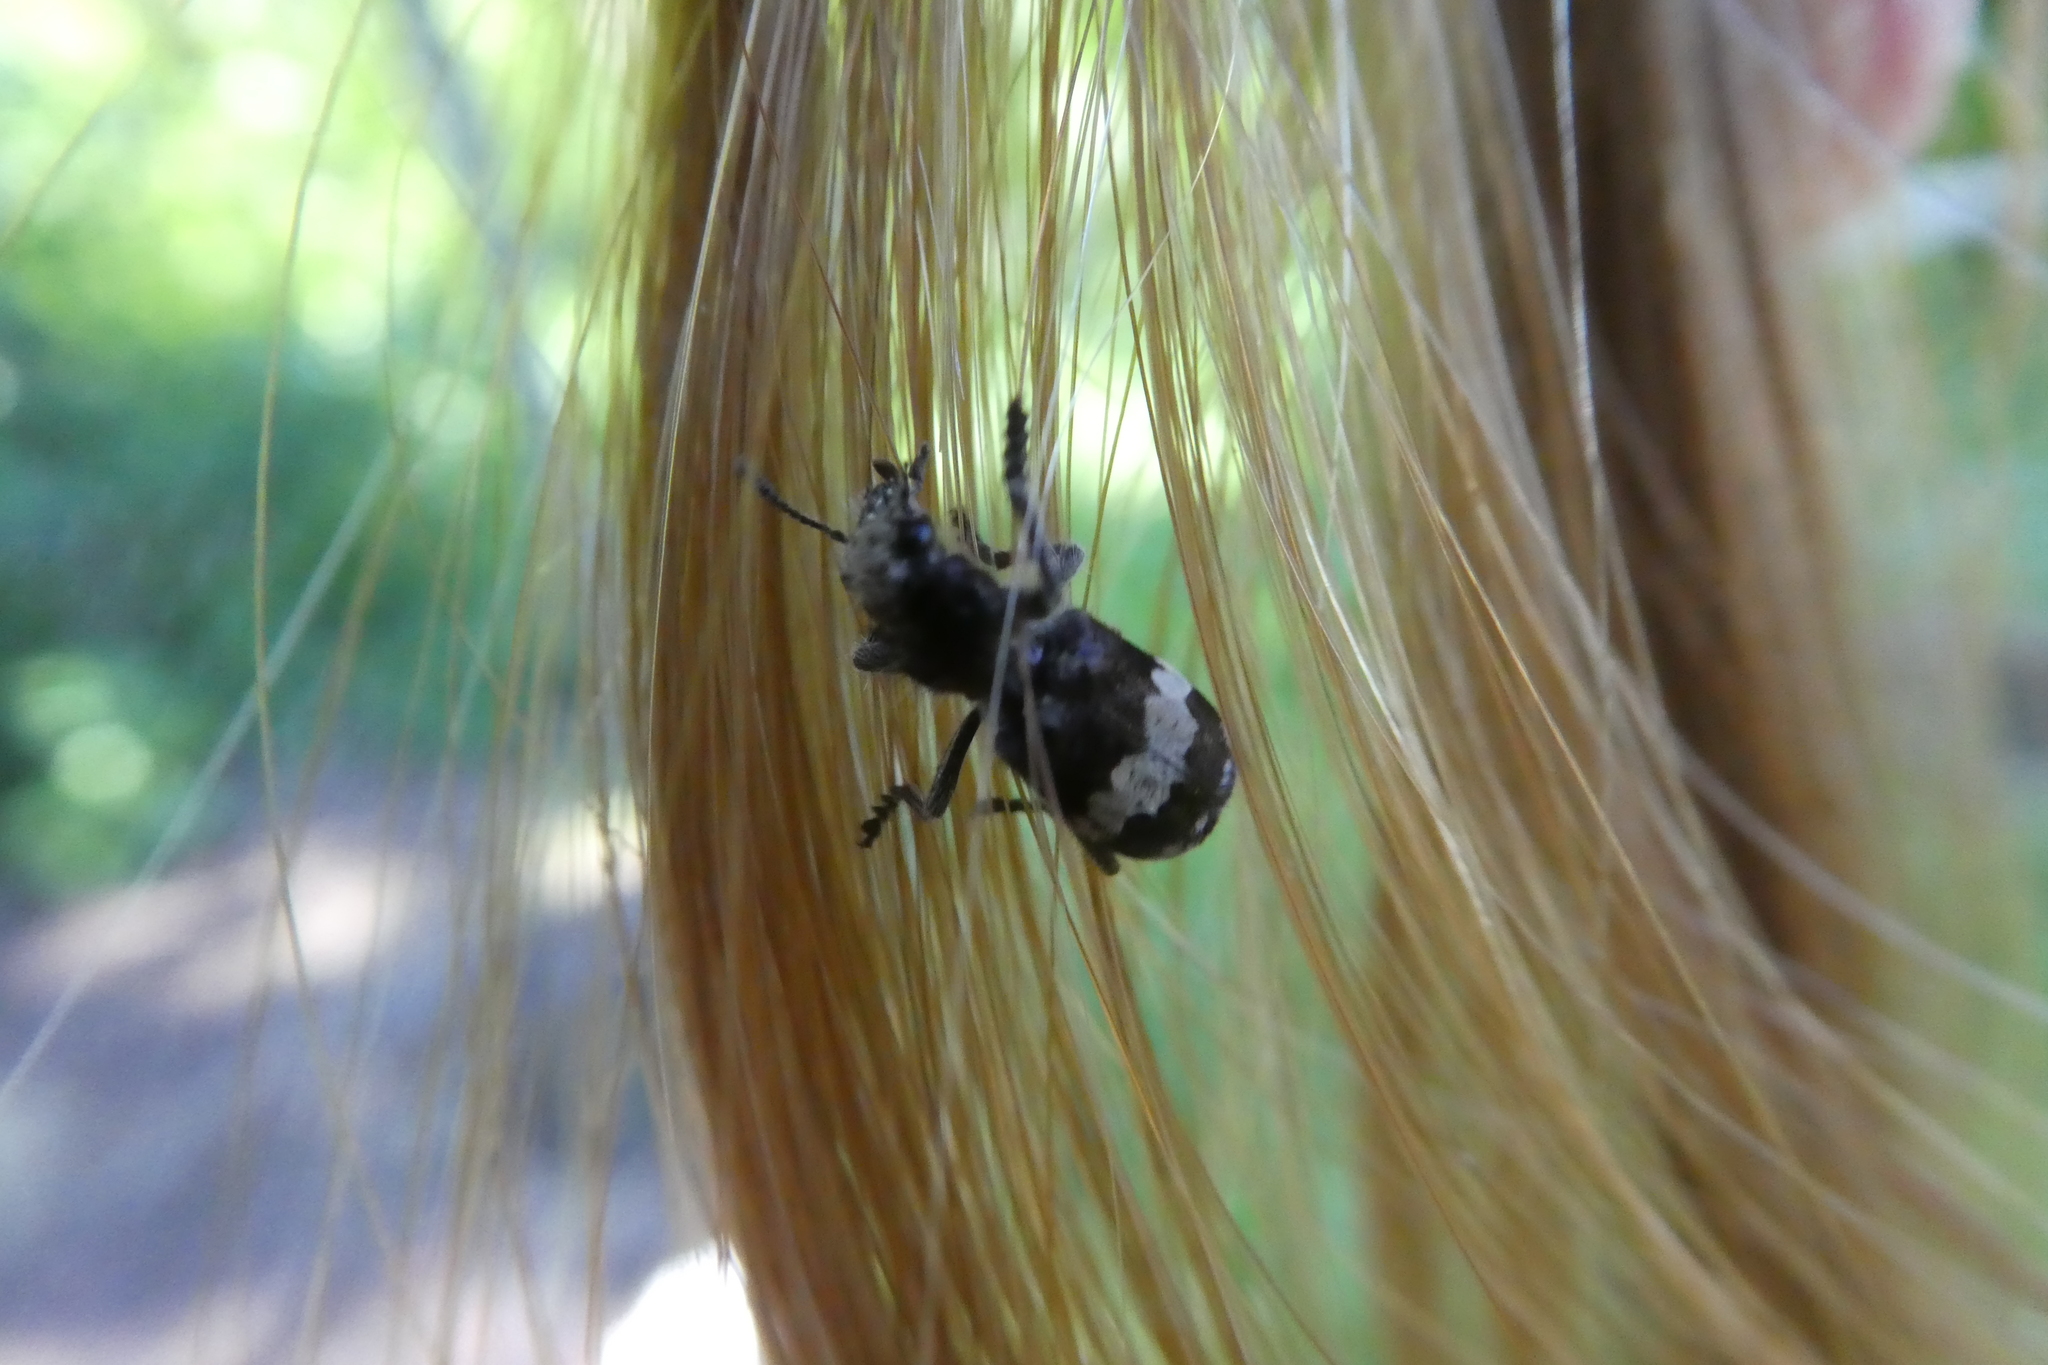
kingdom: Animalia
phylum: Arthropoda
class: Insecta
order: Coleoptera
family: Cleridae
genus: Enoclerus
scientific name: Enoclerus sphegeus
